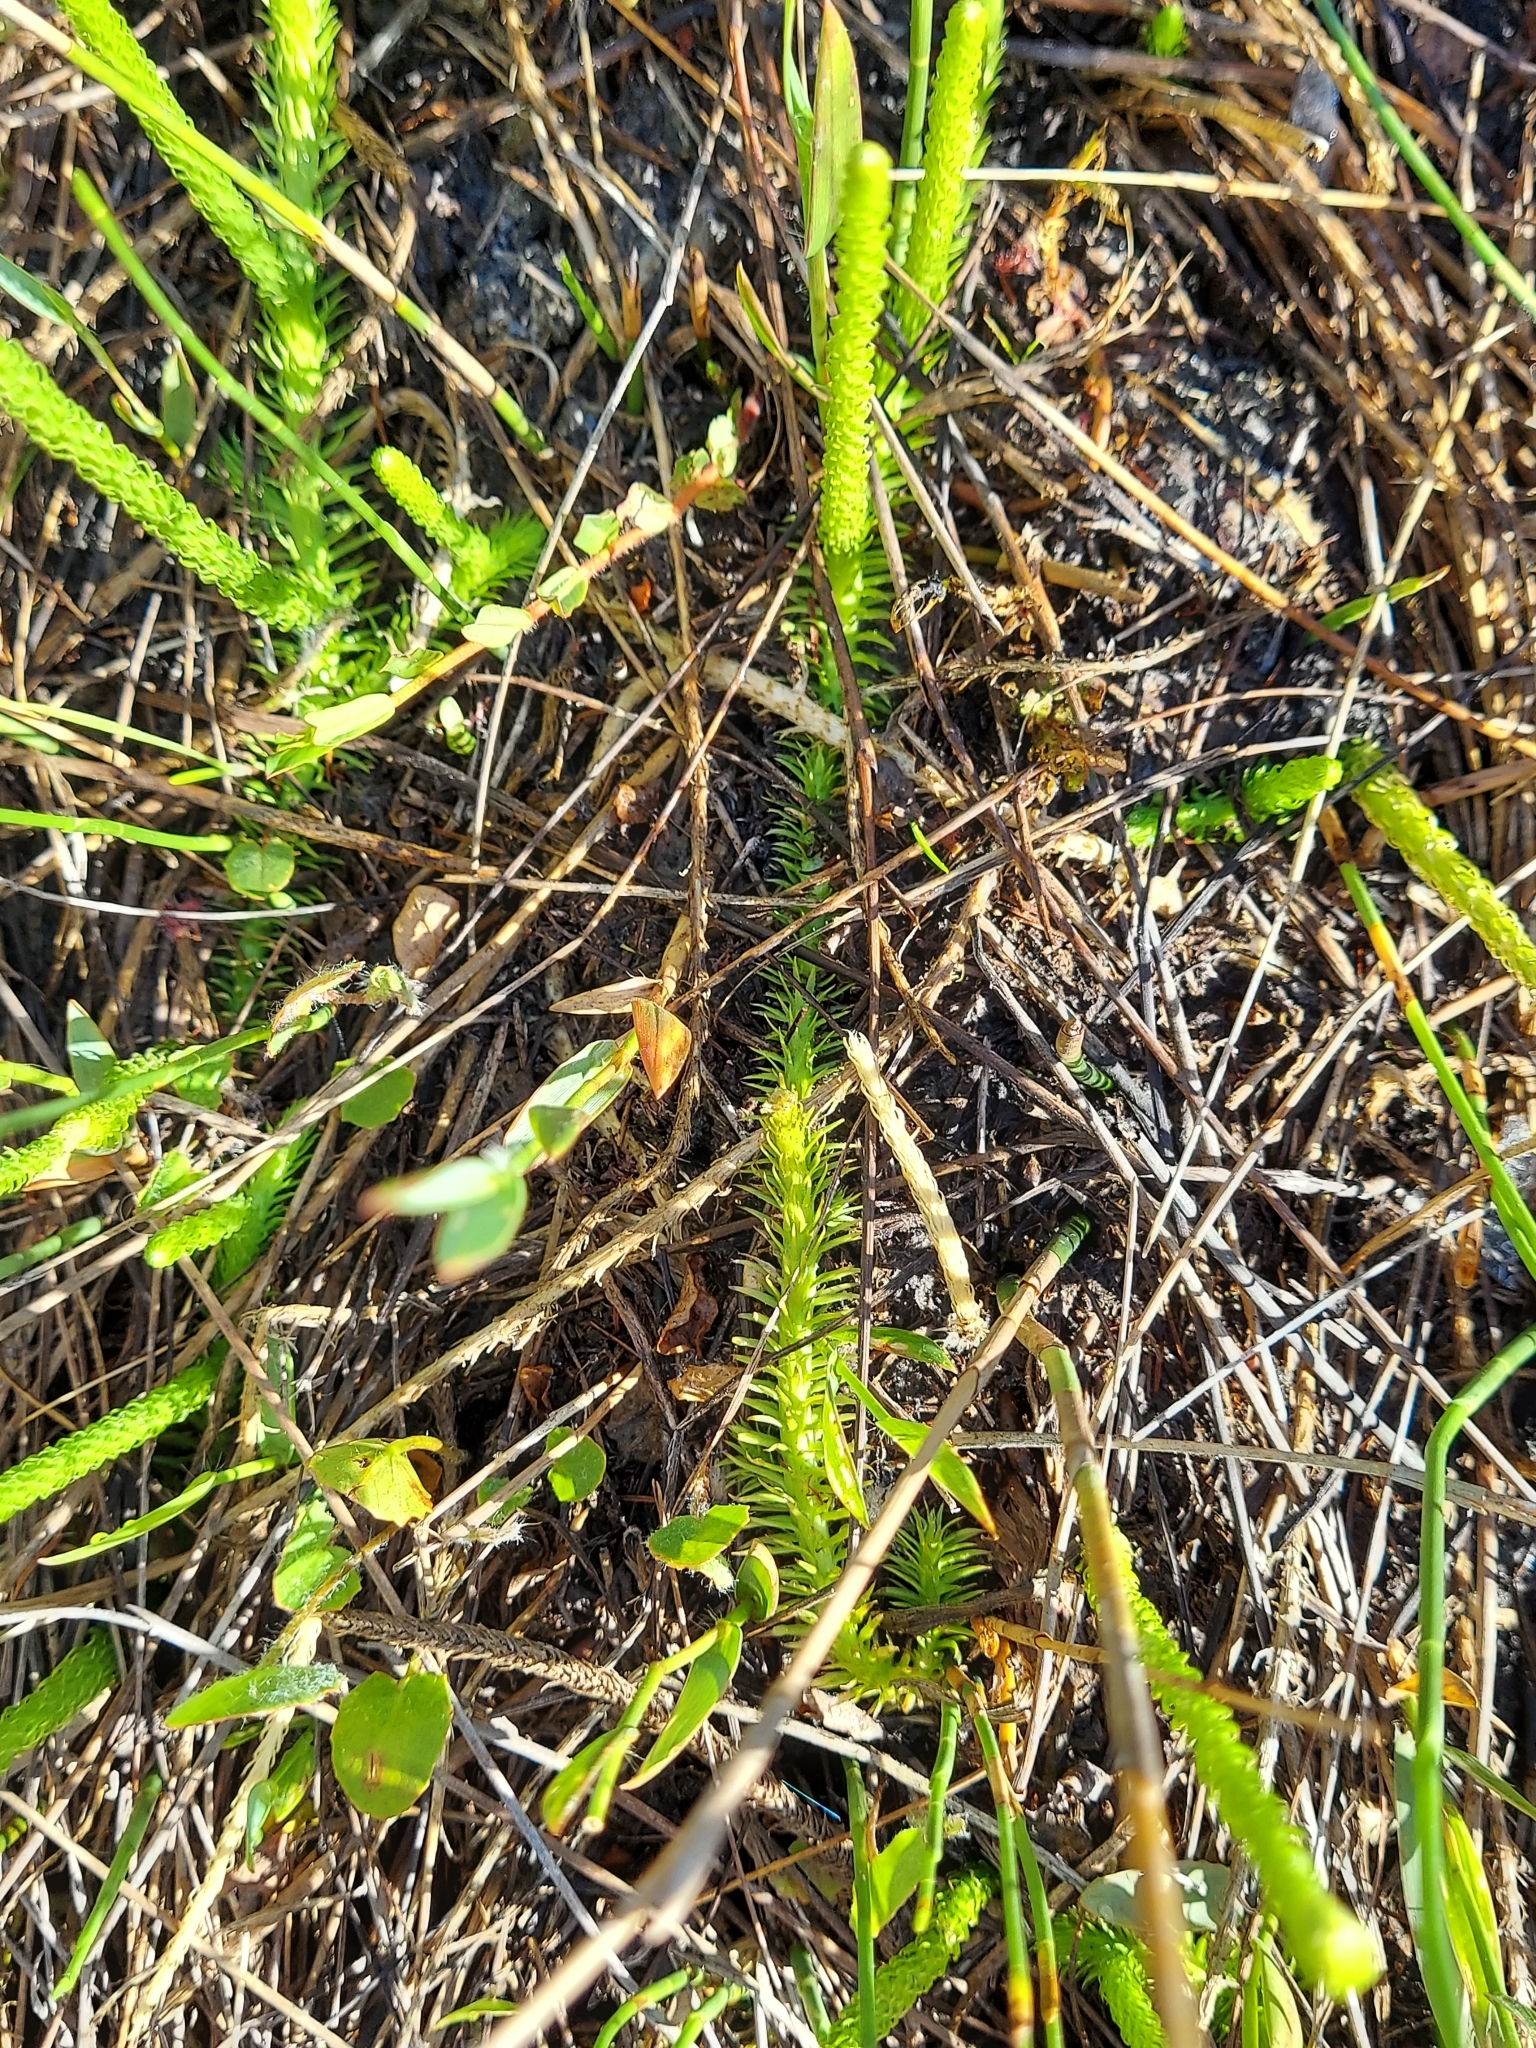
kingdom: Plantae
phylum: Tracheophyta
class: Lycopodiopsida
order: Lycopodiales
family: Lycopodiaceae
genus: Lycopodiella
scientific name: Lycopodiella appressa
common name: Appressed bog clubmoss
